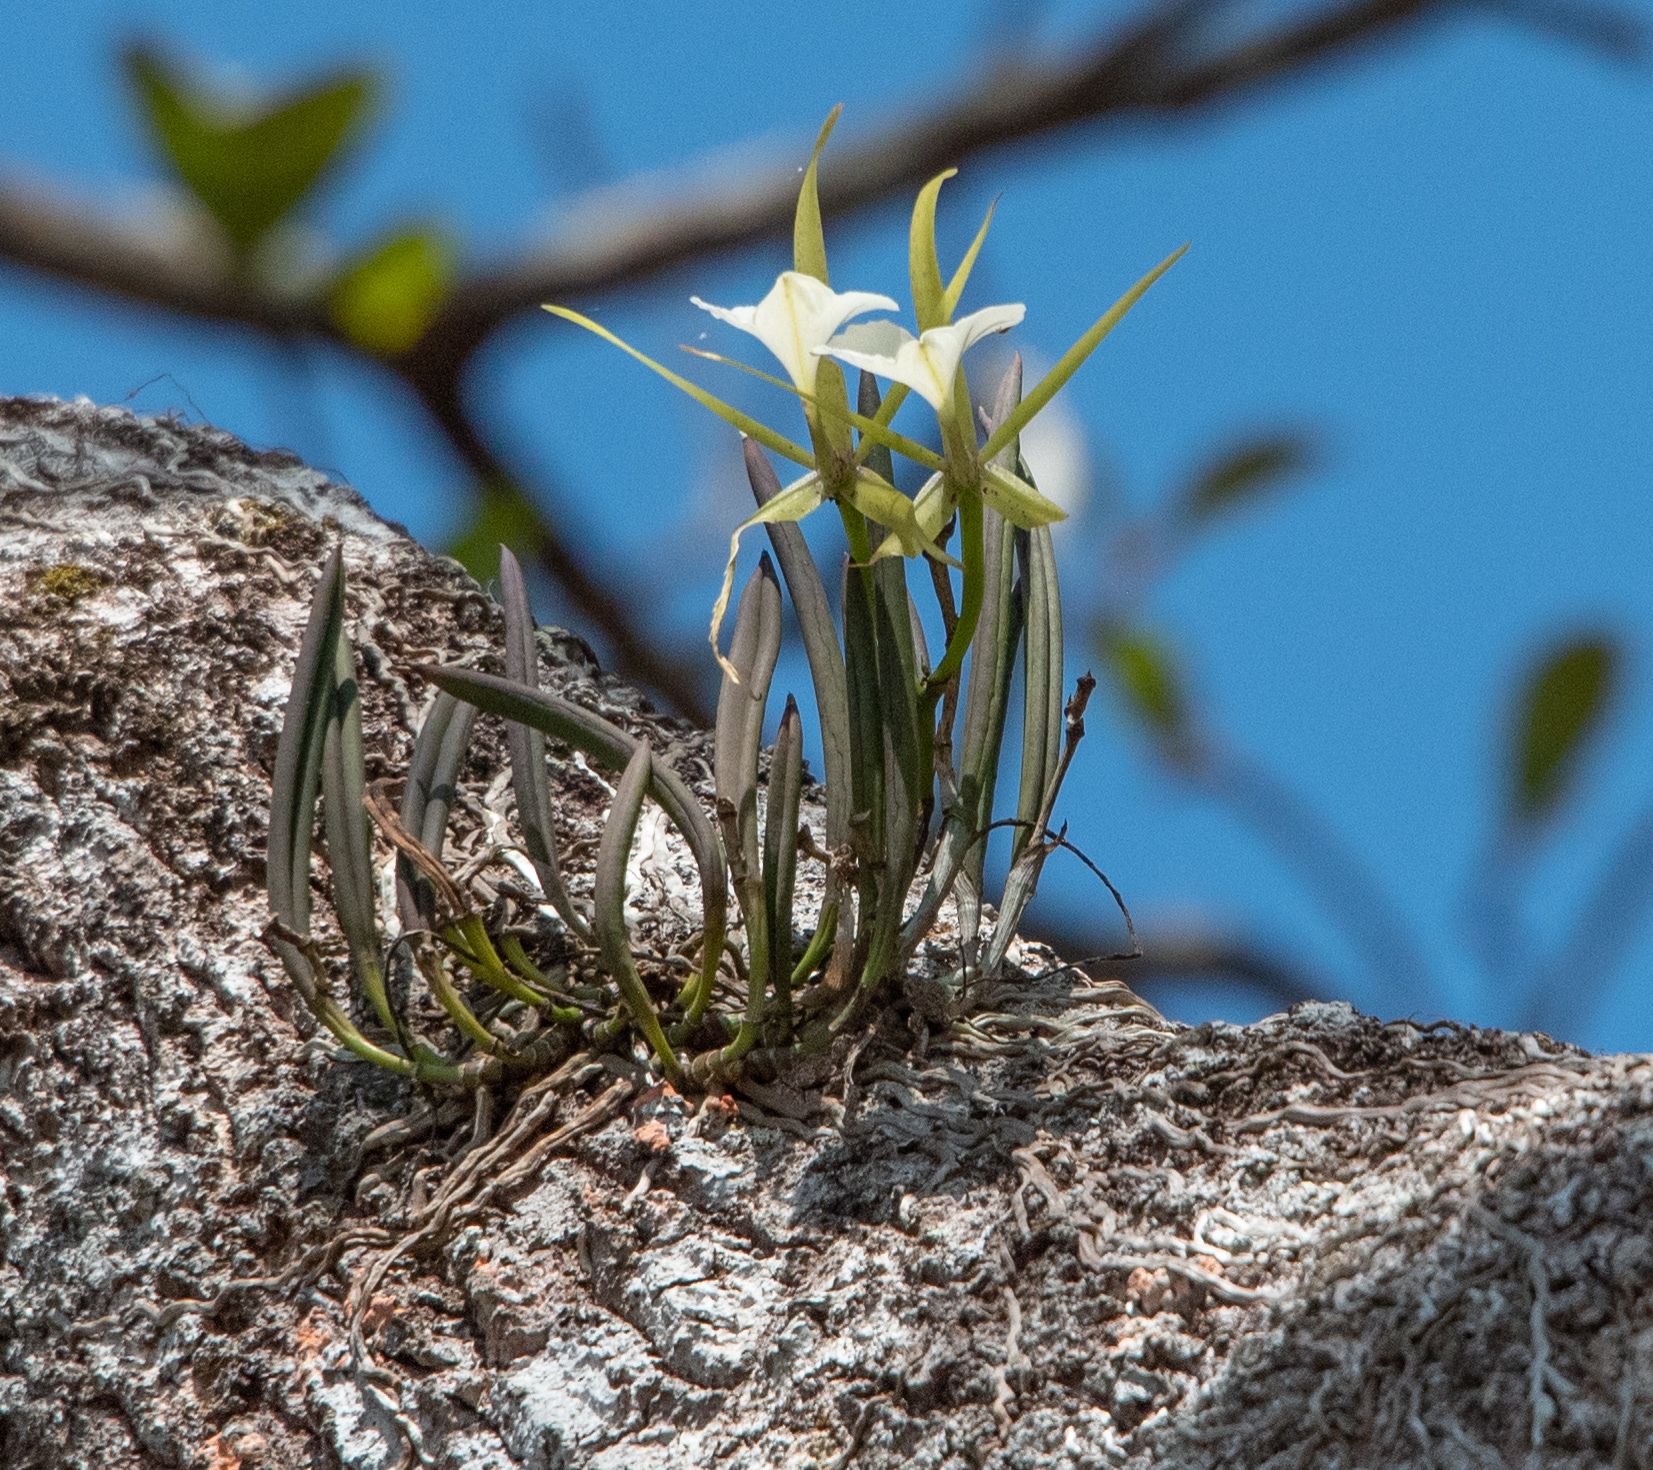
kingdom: Plantae
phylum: Tracheophyta
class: Liliopsida
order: Asparagales
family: Orchidaceae
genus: Brassavola
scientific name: Brassavola nodosa
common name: Lady of the night
